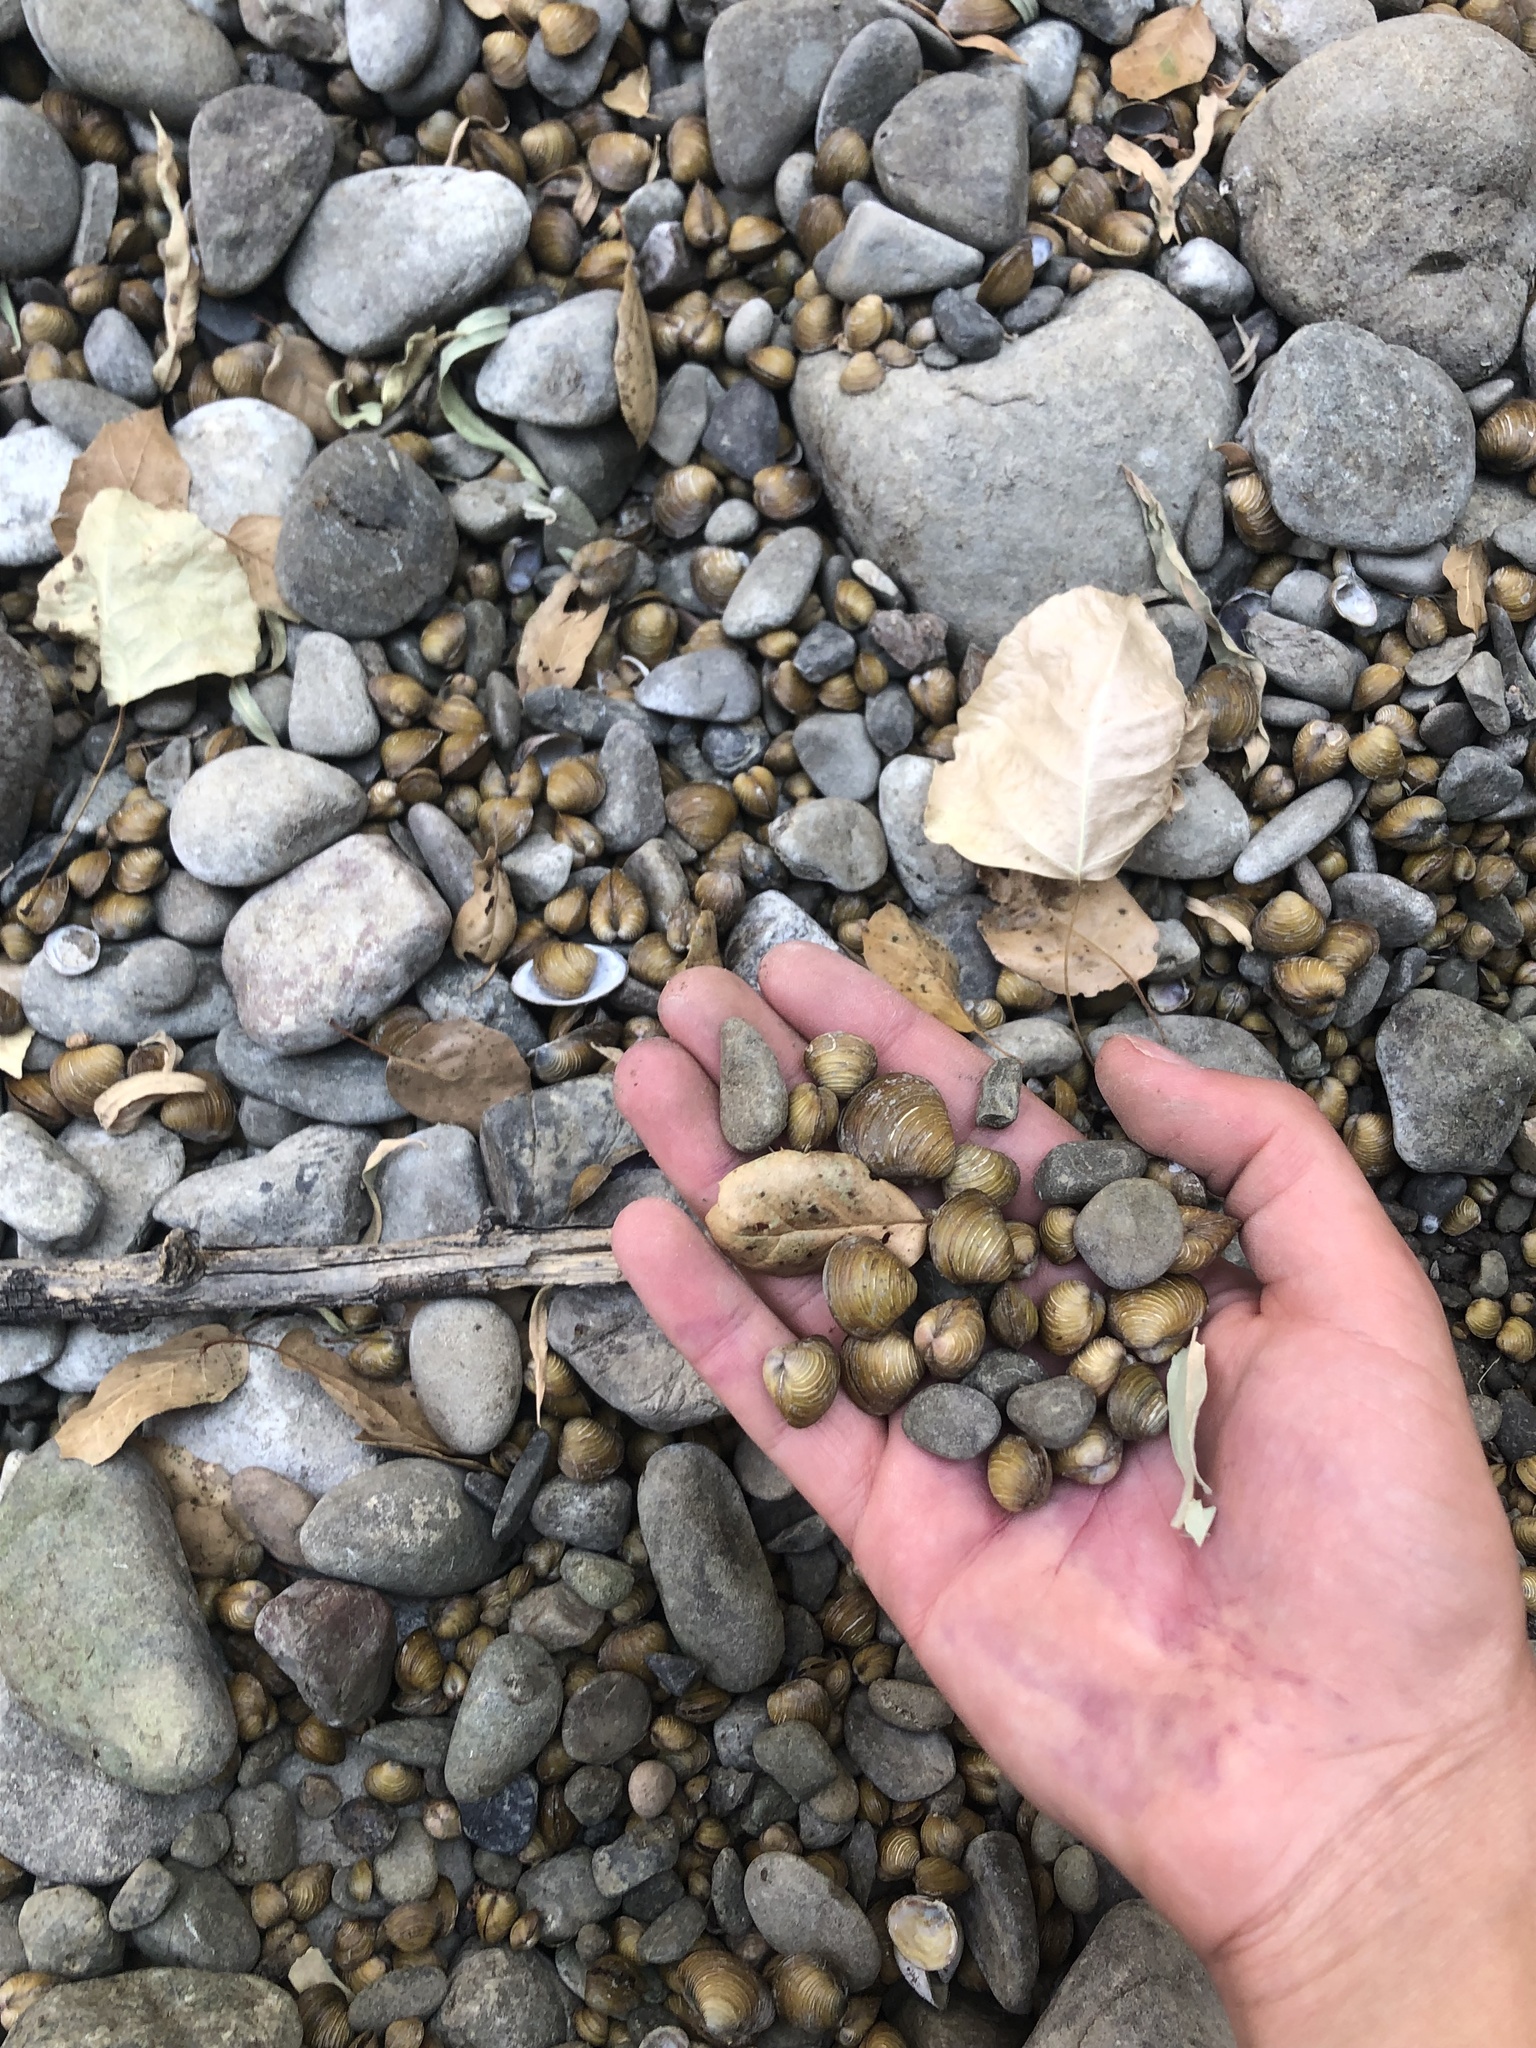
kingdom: Animalia
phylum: Mollusca
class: Bivalvia
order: Venerida
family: Cyrenidae
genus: Corbicula
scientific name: Corbicula fluminea
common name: Asian clam
